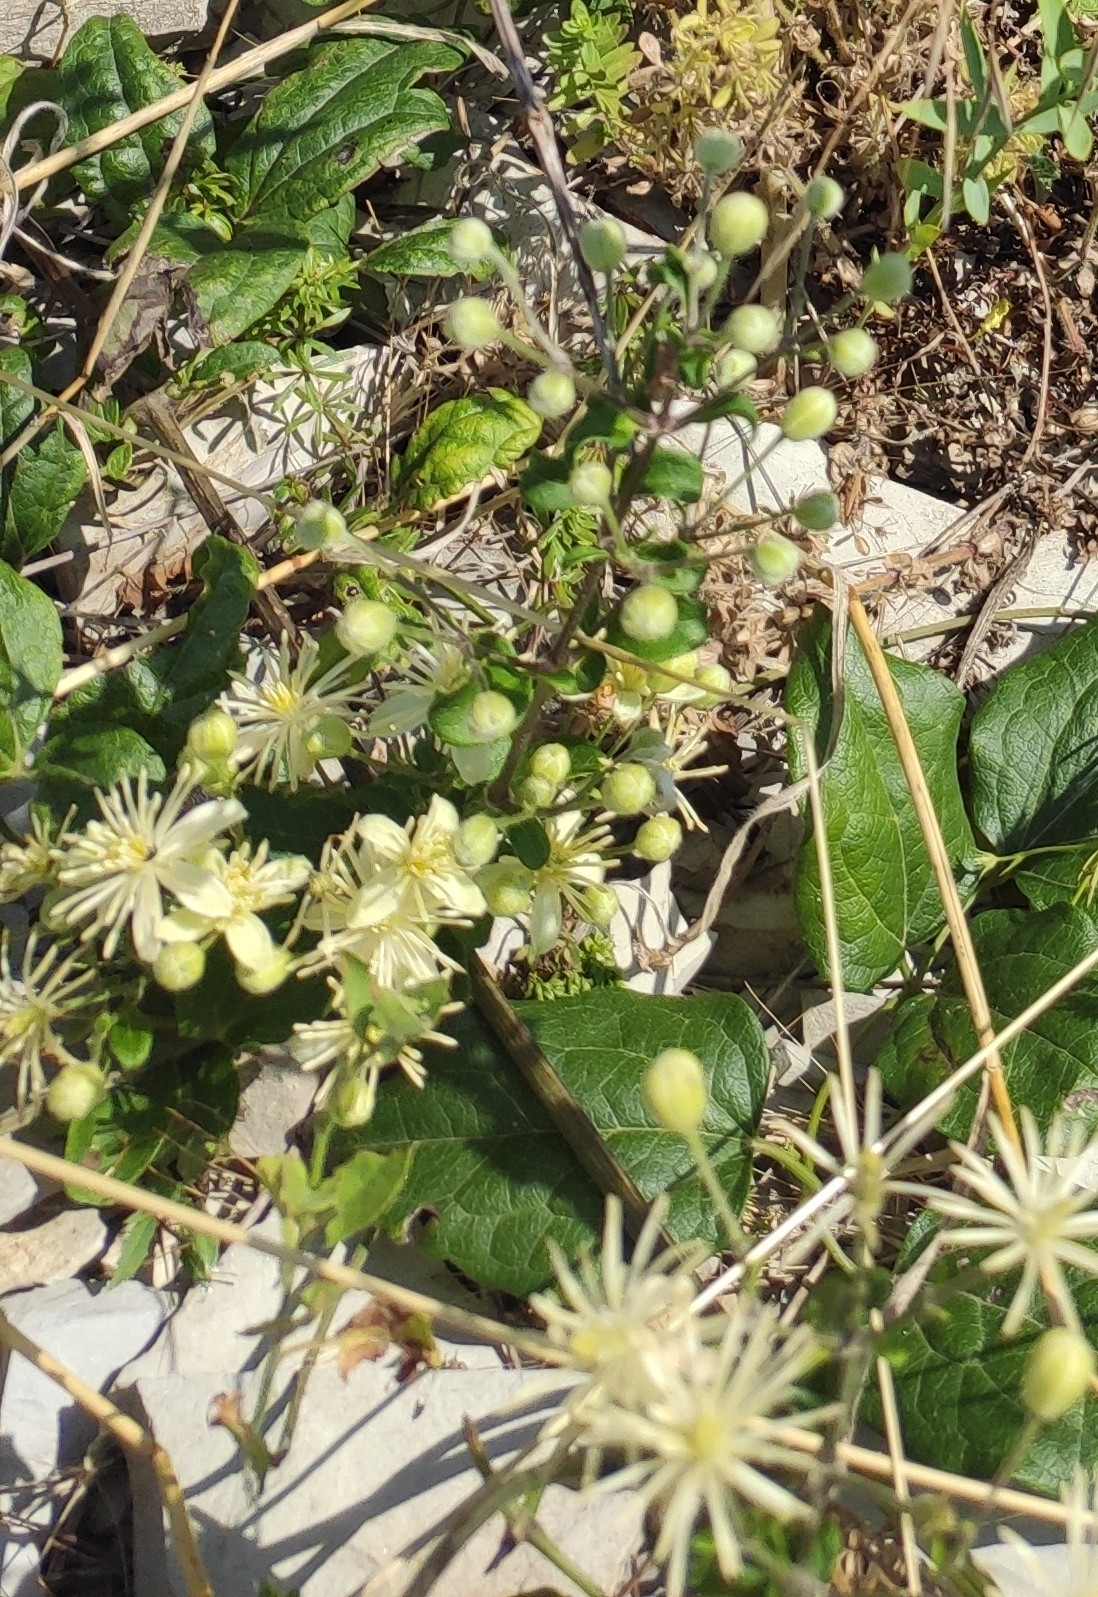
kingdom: Plantae
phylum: Tracheophyta
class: Magnoliopsida
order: Ranunculales
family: Ranunculaceae
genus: Clematis
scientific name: Clematis vitalba
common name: Evergreen clematis
